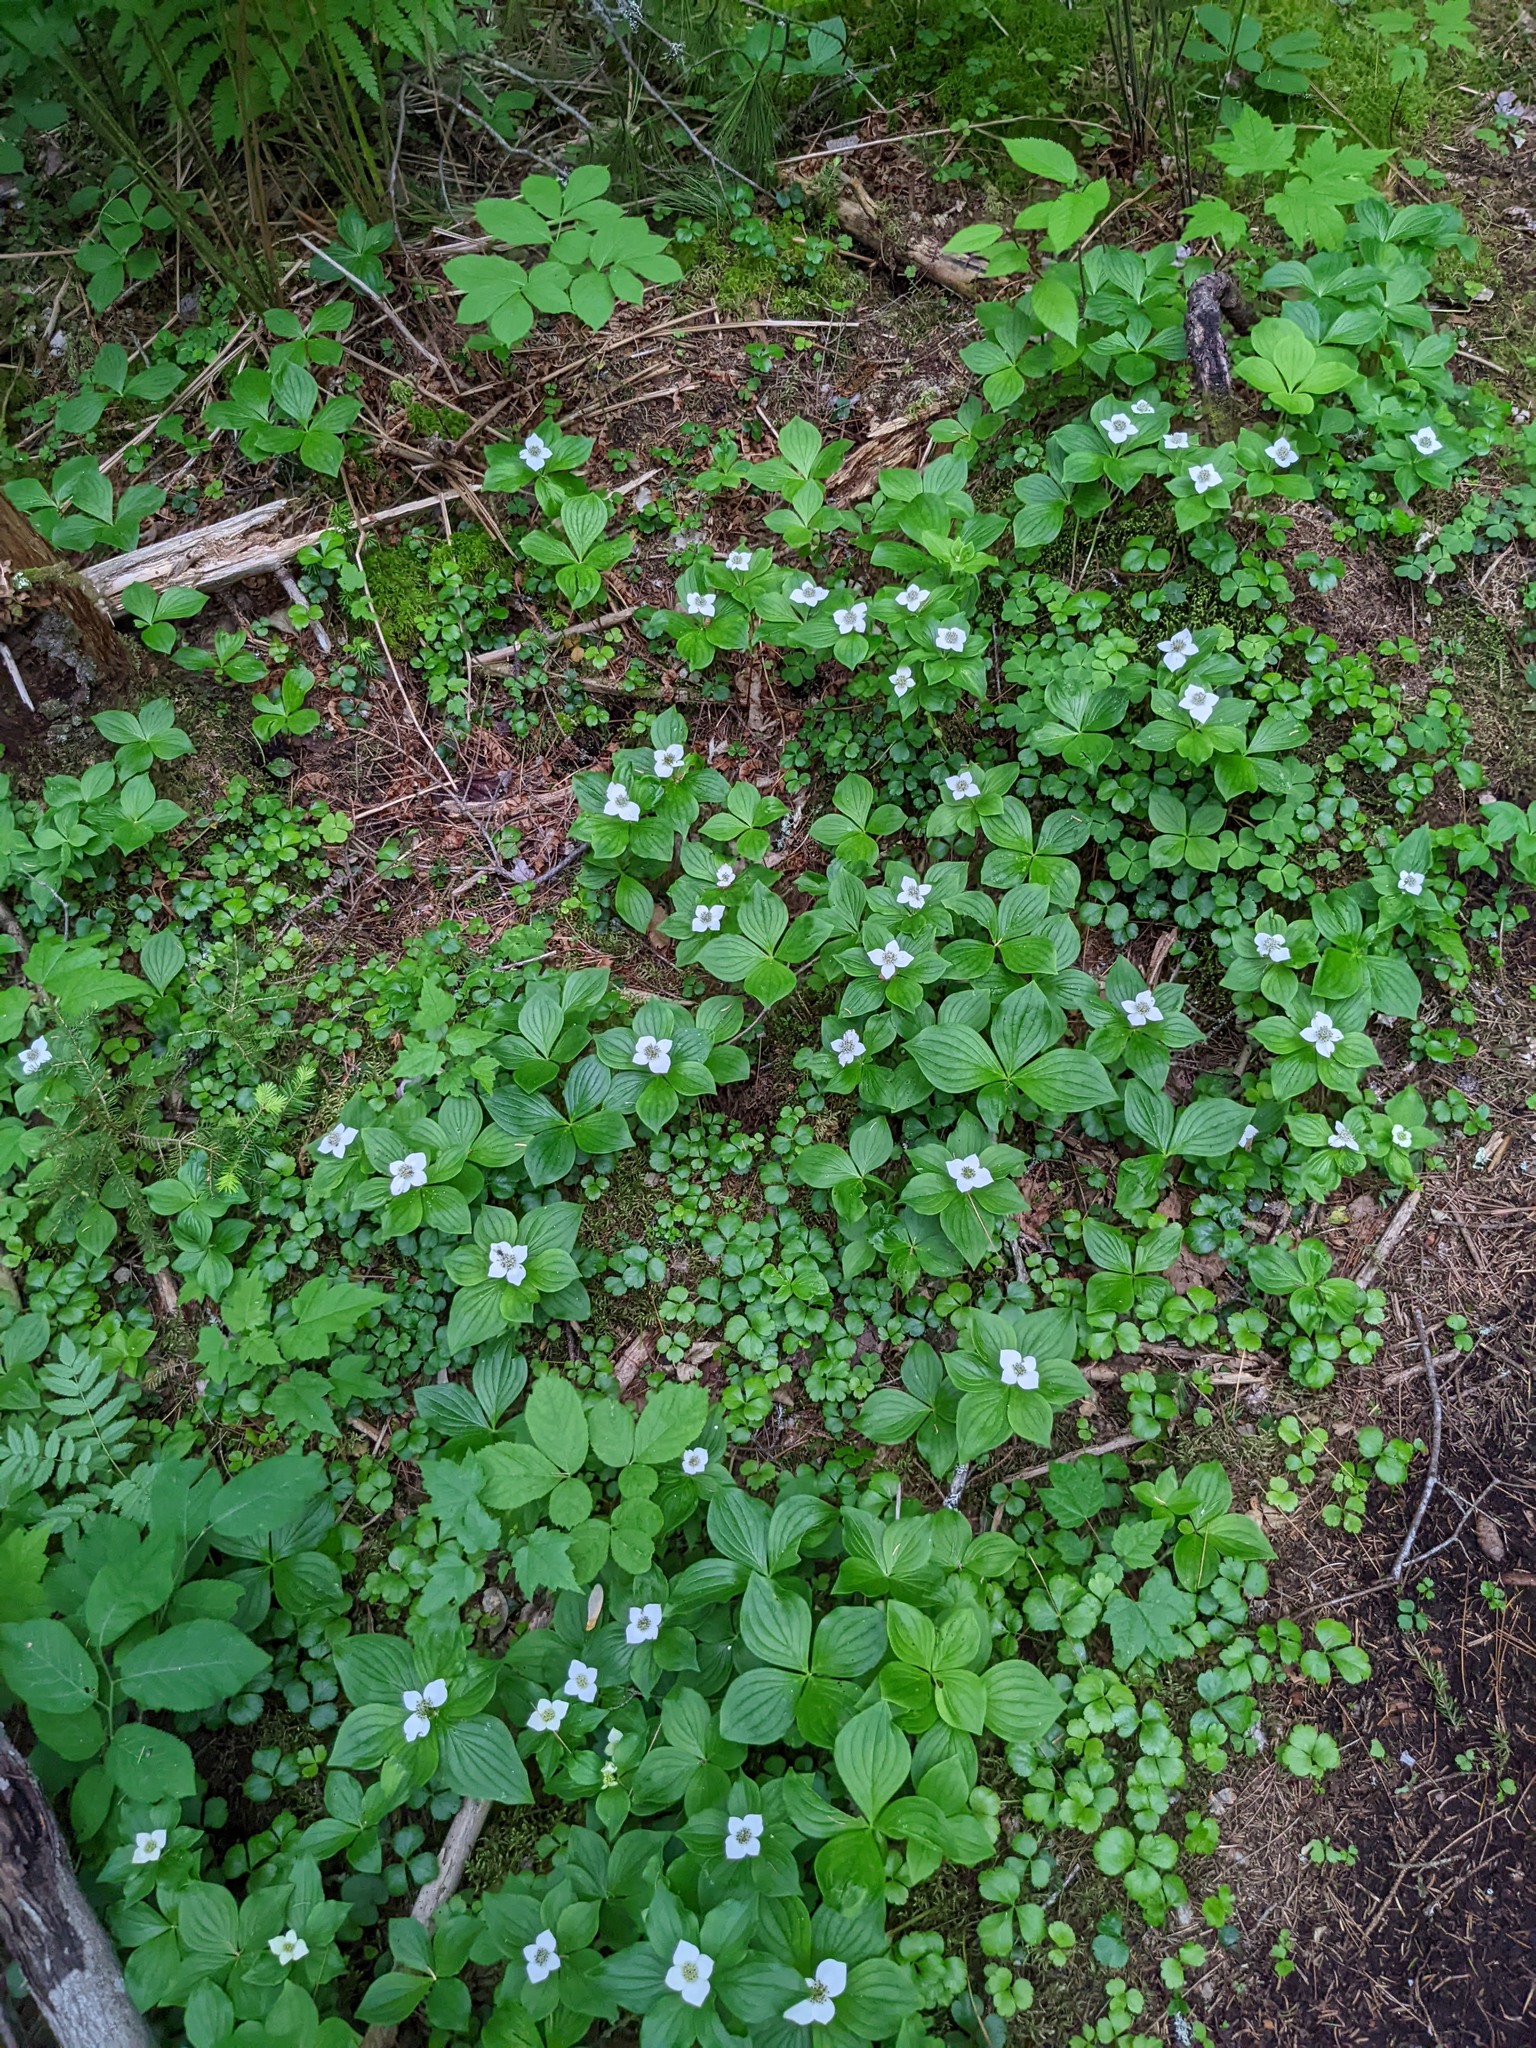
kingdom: Plantae
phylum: Tracheophyta
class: Magnoliopsida
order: Cornales
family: Cornaceae
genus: Cornus
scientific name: Cornus canadensis
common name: Creeping dogwood
